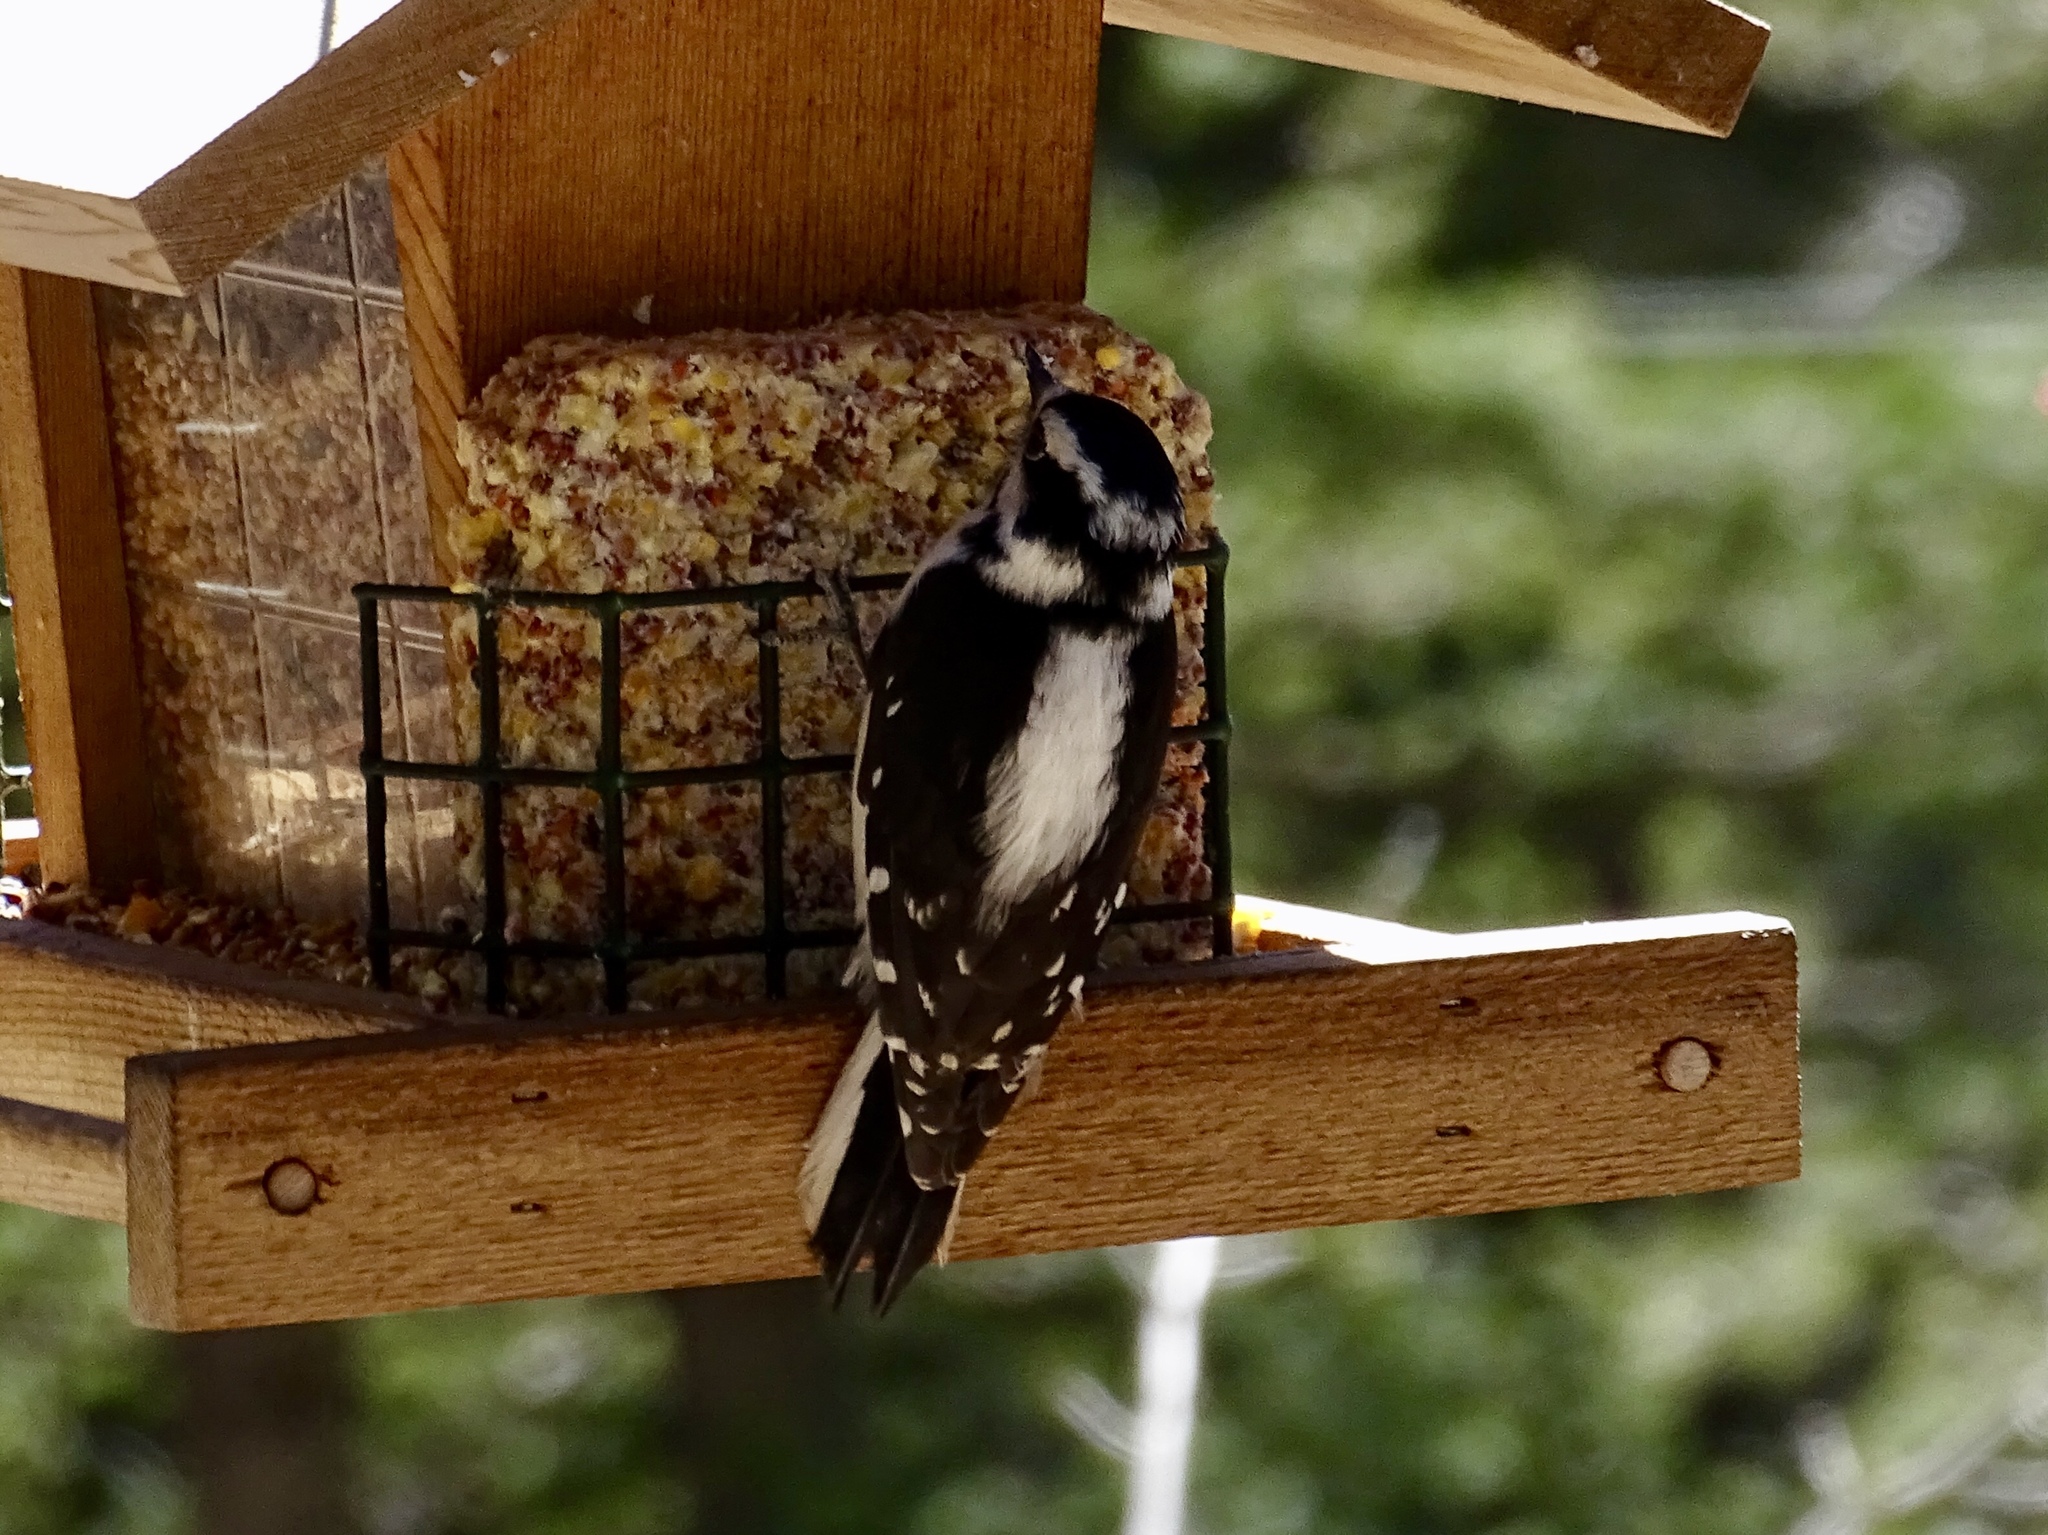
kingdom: Animalia
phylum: Chordata
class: Aves
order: Piciformes
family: Picidae
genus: Dryobates
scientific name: Dryobates pubescens
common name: Downy woodpecker
